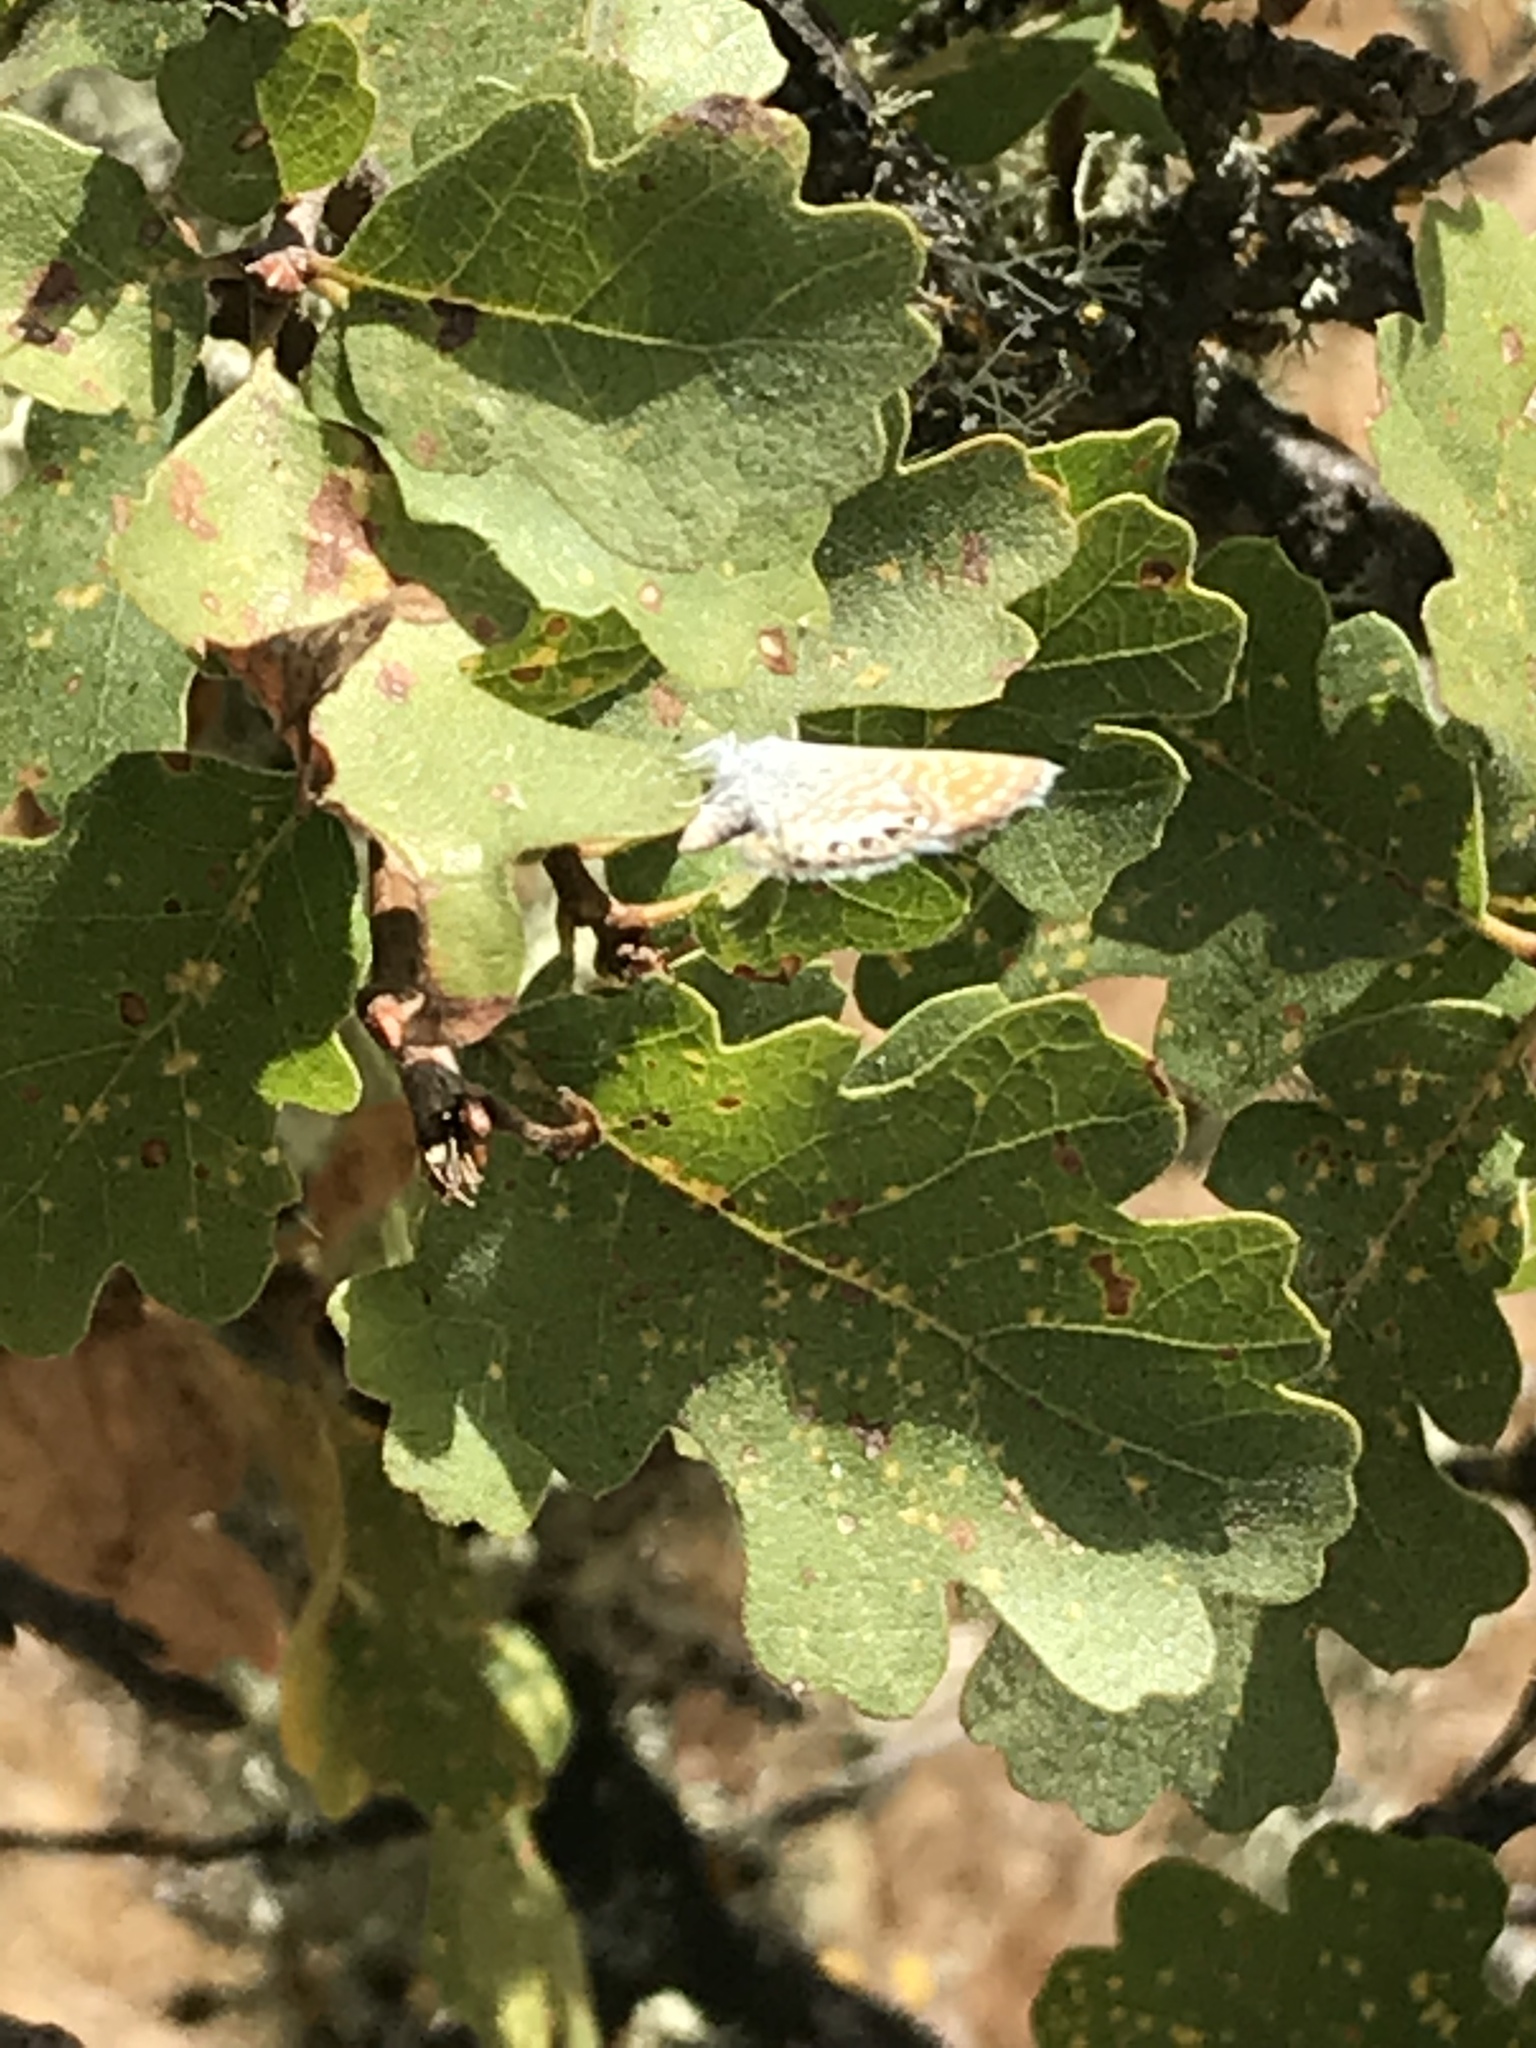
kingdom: Animalia
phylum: Arthropoda
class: Insecta
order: Lepidoptera
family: Lycaenidae
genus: Brephidium
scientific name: Brephidium exilis
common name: Pygmy blue
